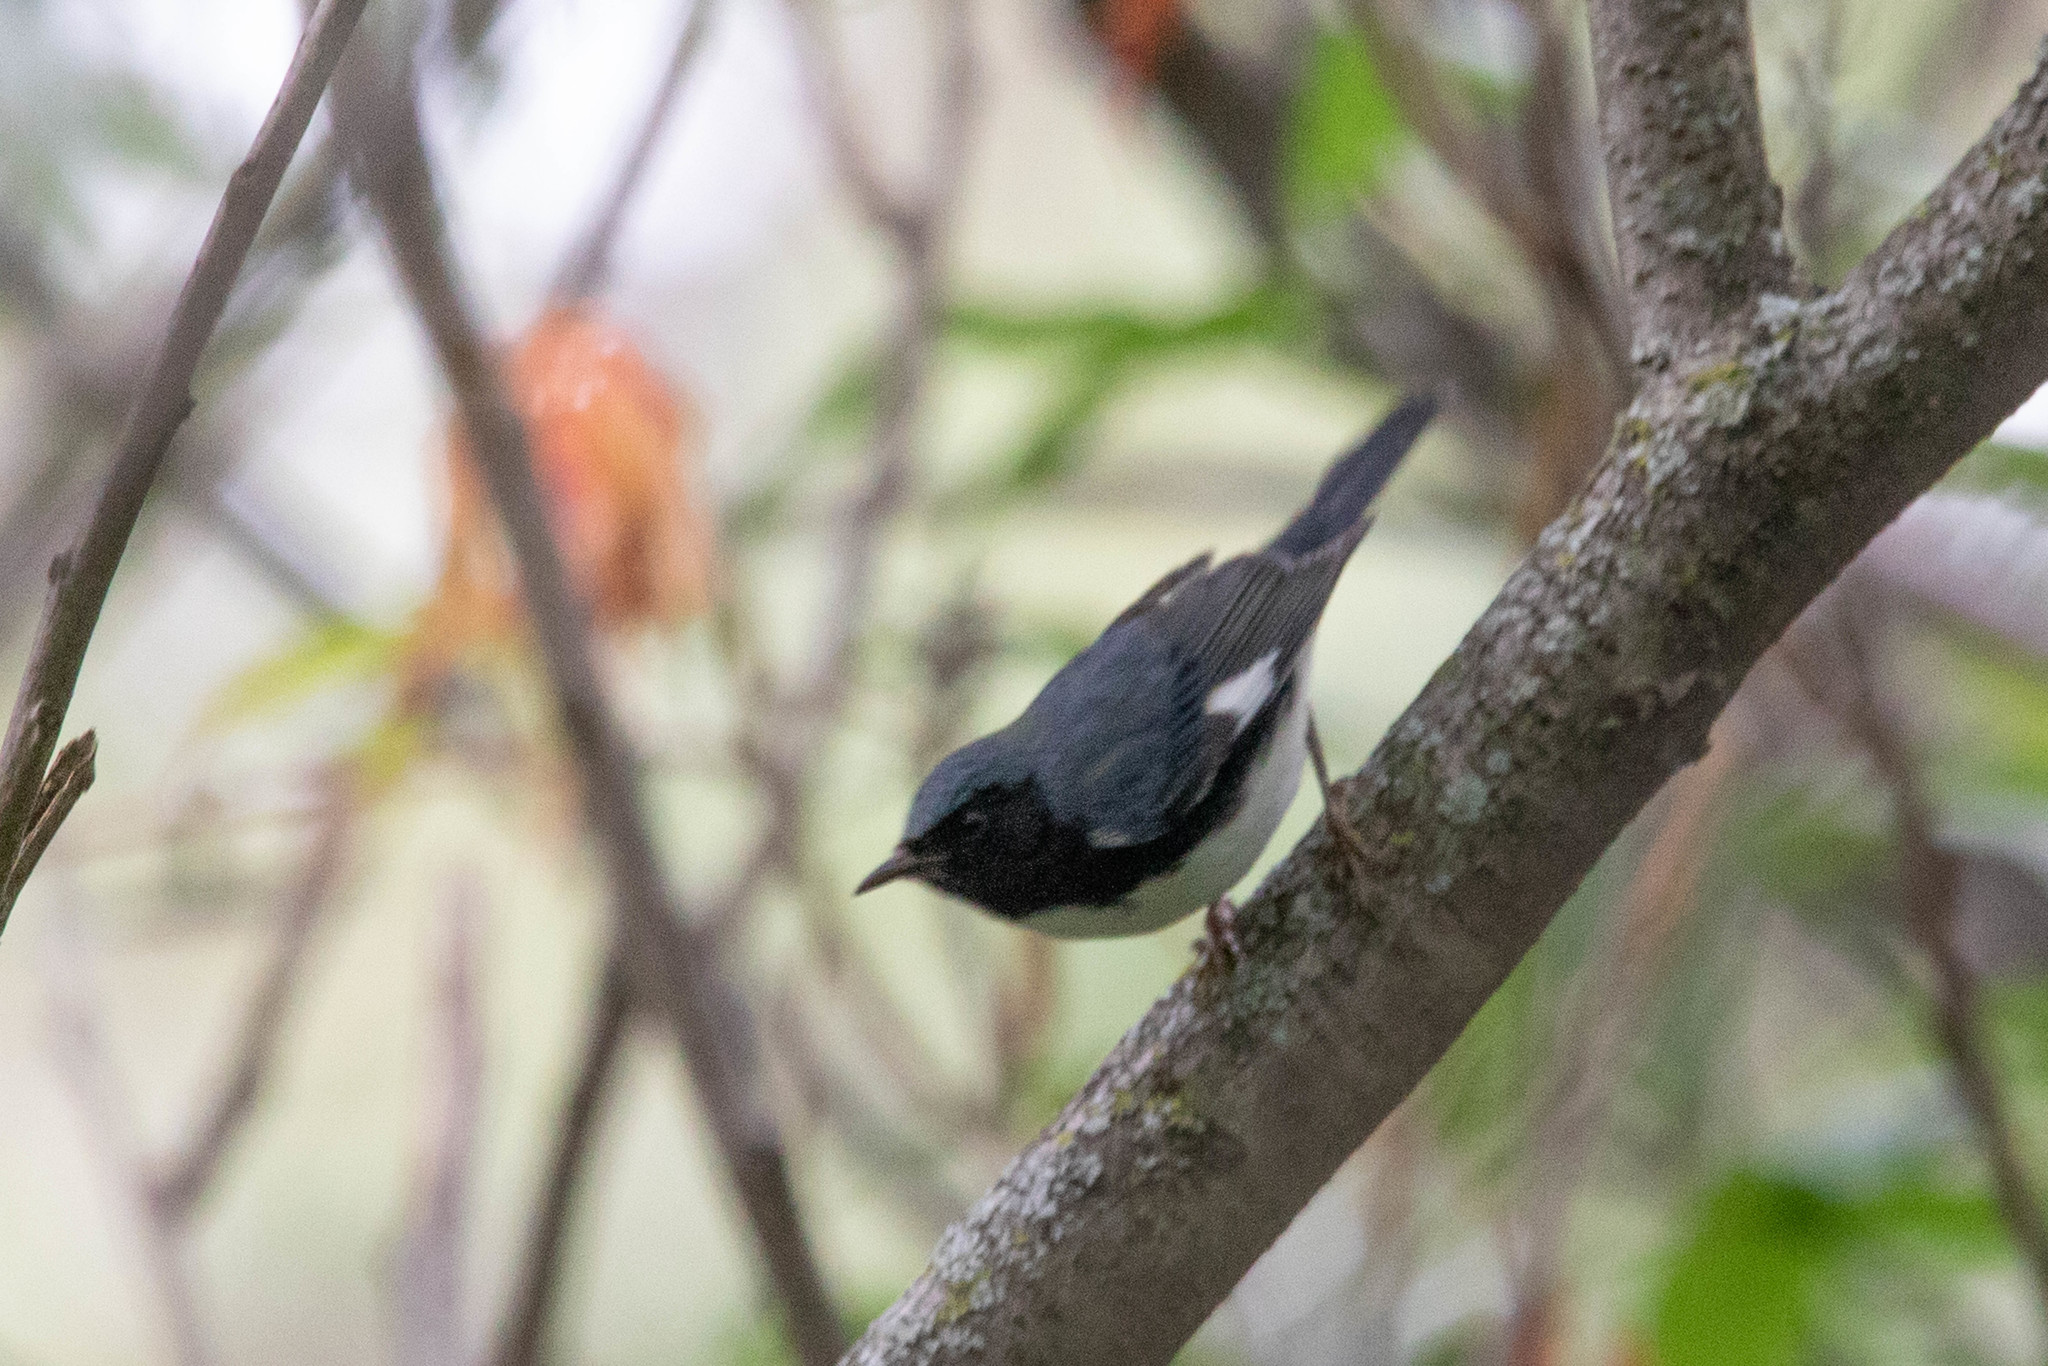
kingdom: Animalia
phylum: Chordata
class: Aves
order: Passeriformes
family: Parulidae
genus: Setophaga
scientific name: Setophaga caerulescens
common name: Black-throated blue warbler
